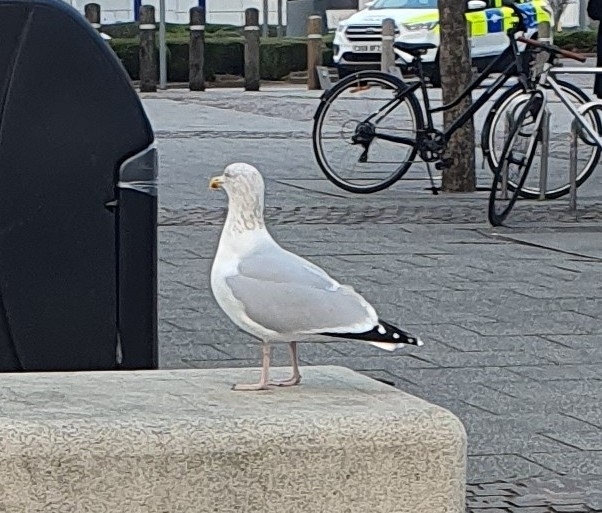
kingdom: Animalia
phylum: Chordata
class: Aves
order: Charadriiformes
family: Laridae
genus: Larus
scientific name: Larus argentatus
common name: Herring gull
